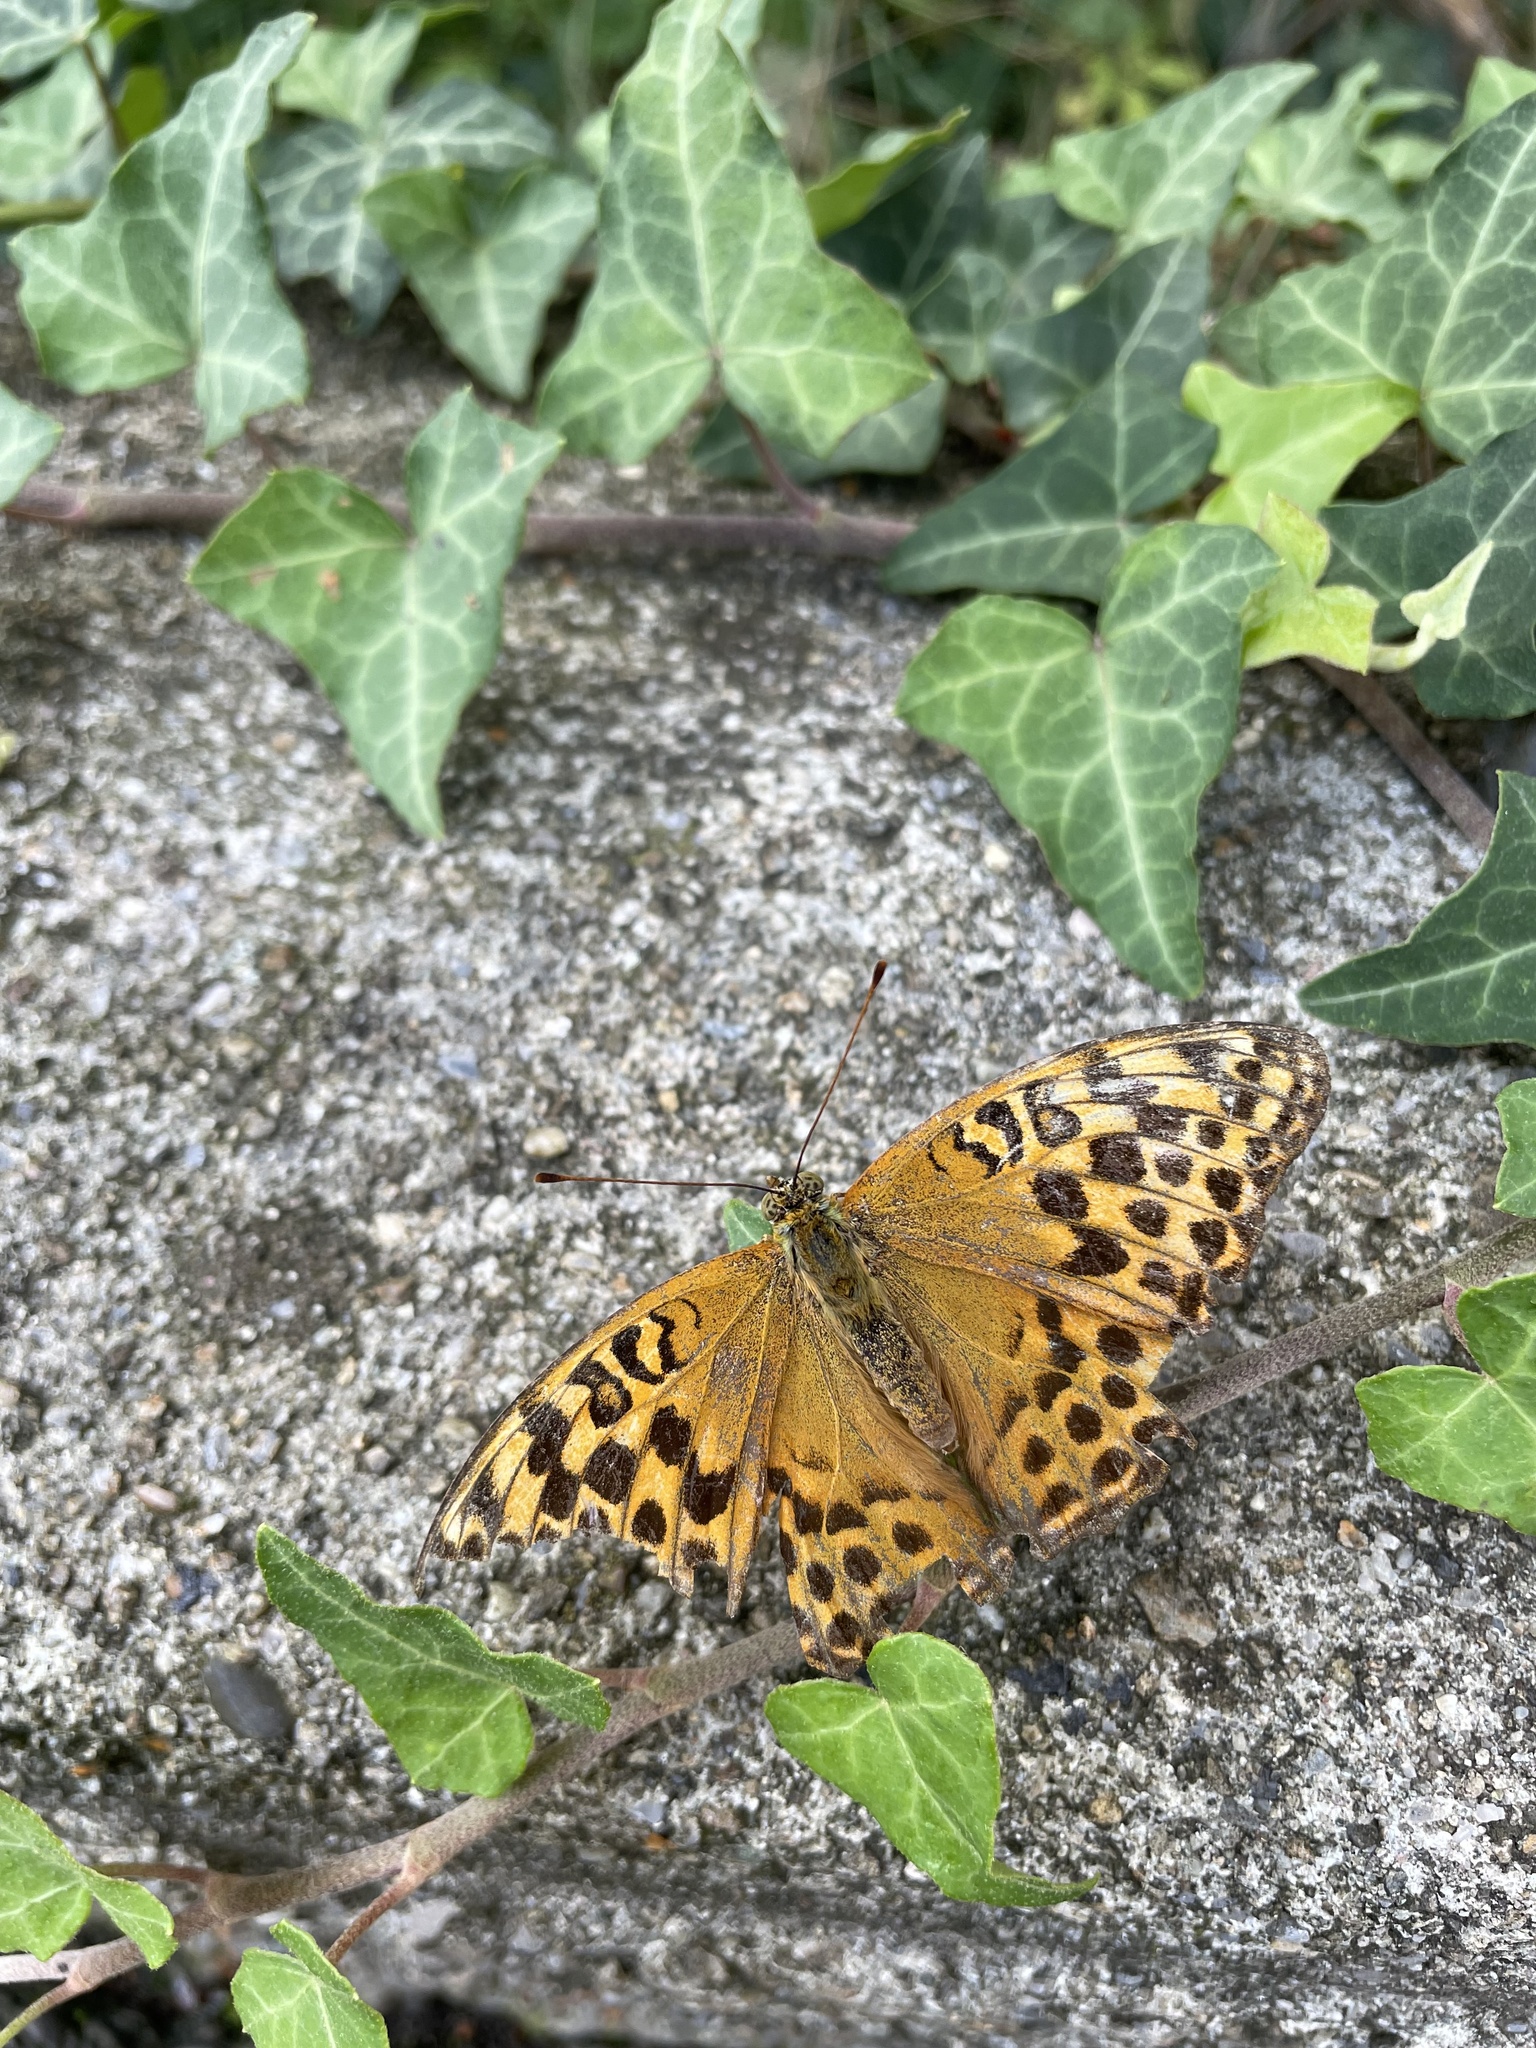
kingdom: Animalia
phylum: Arthropoda
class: Insecta
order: Lepidoptera
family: Nymphalidae
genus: Argynnis
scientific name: Argynnis paphia
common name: Silver-washed fritillary
